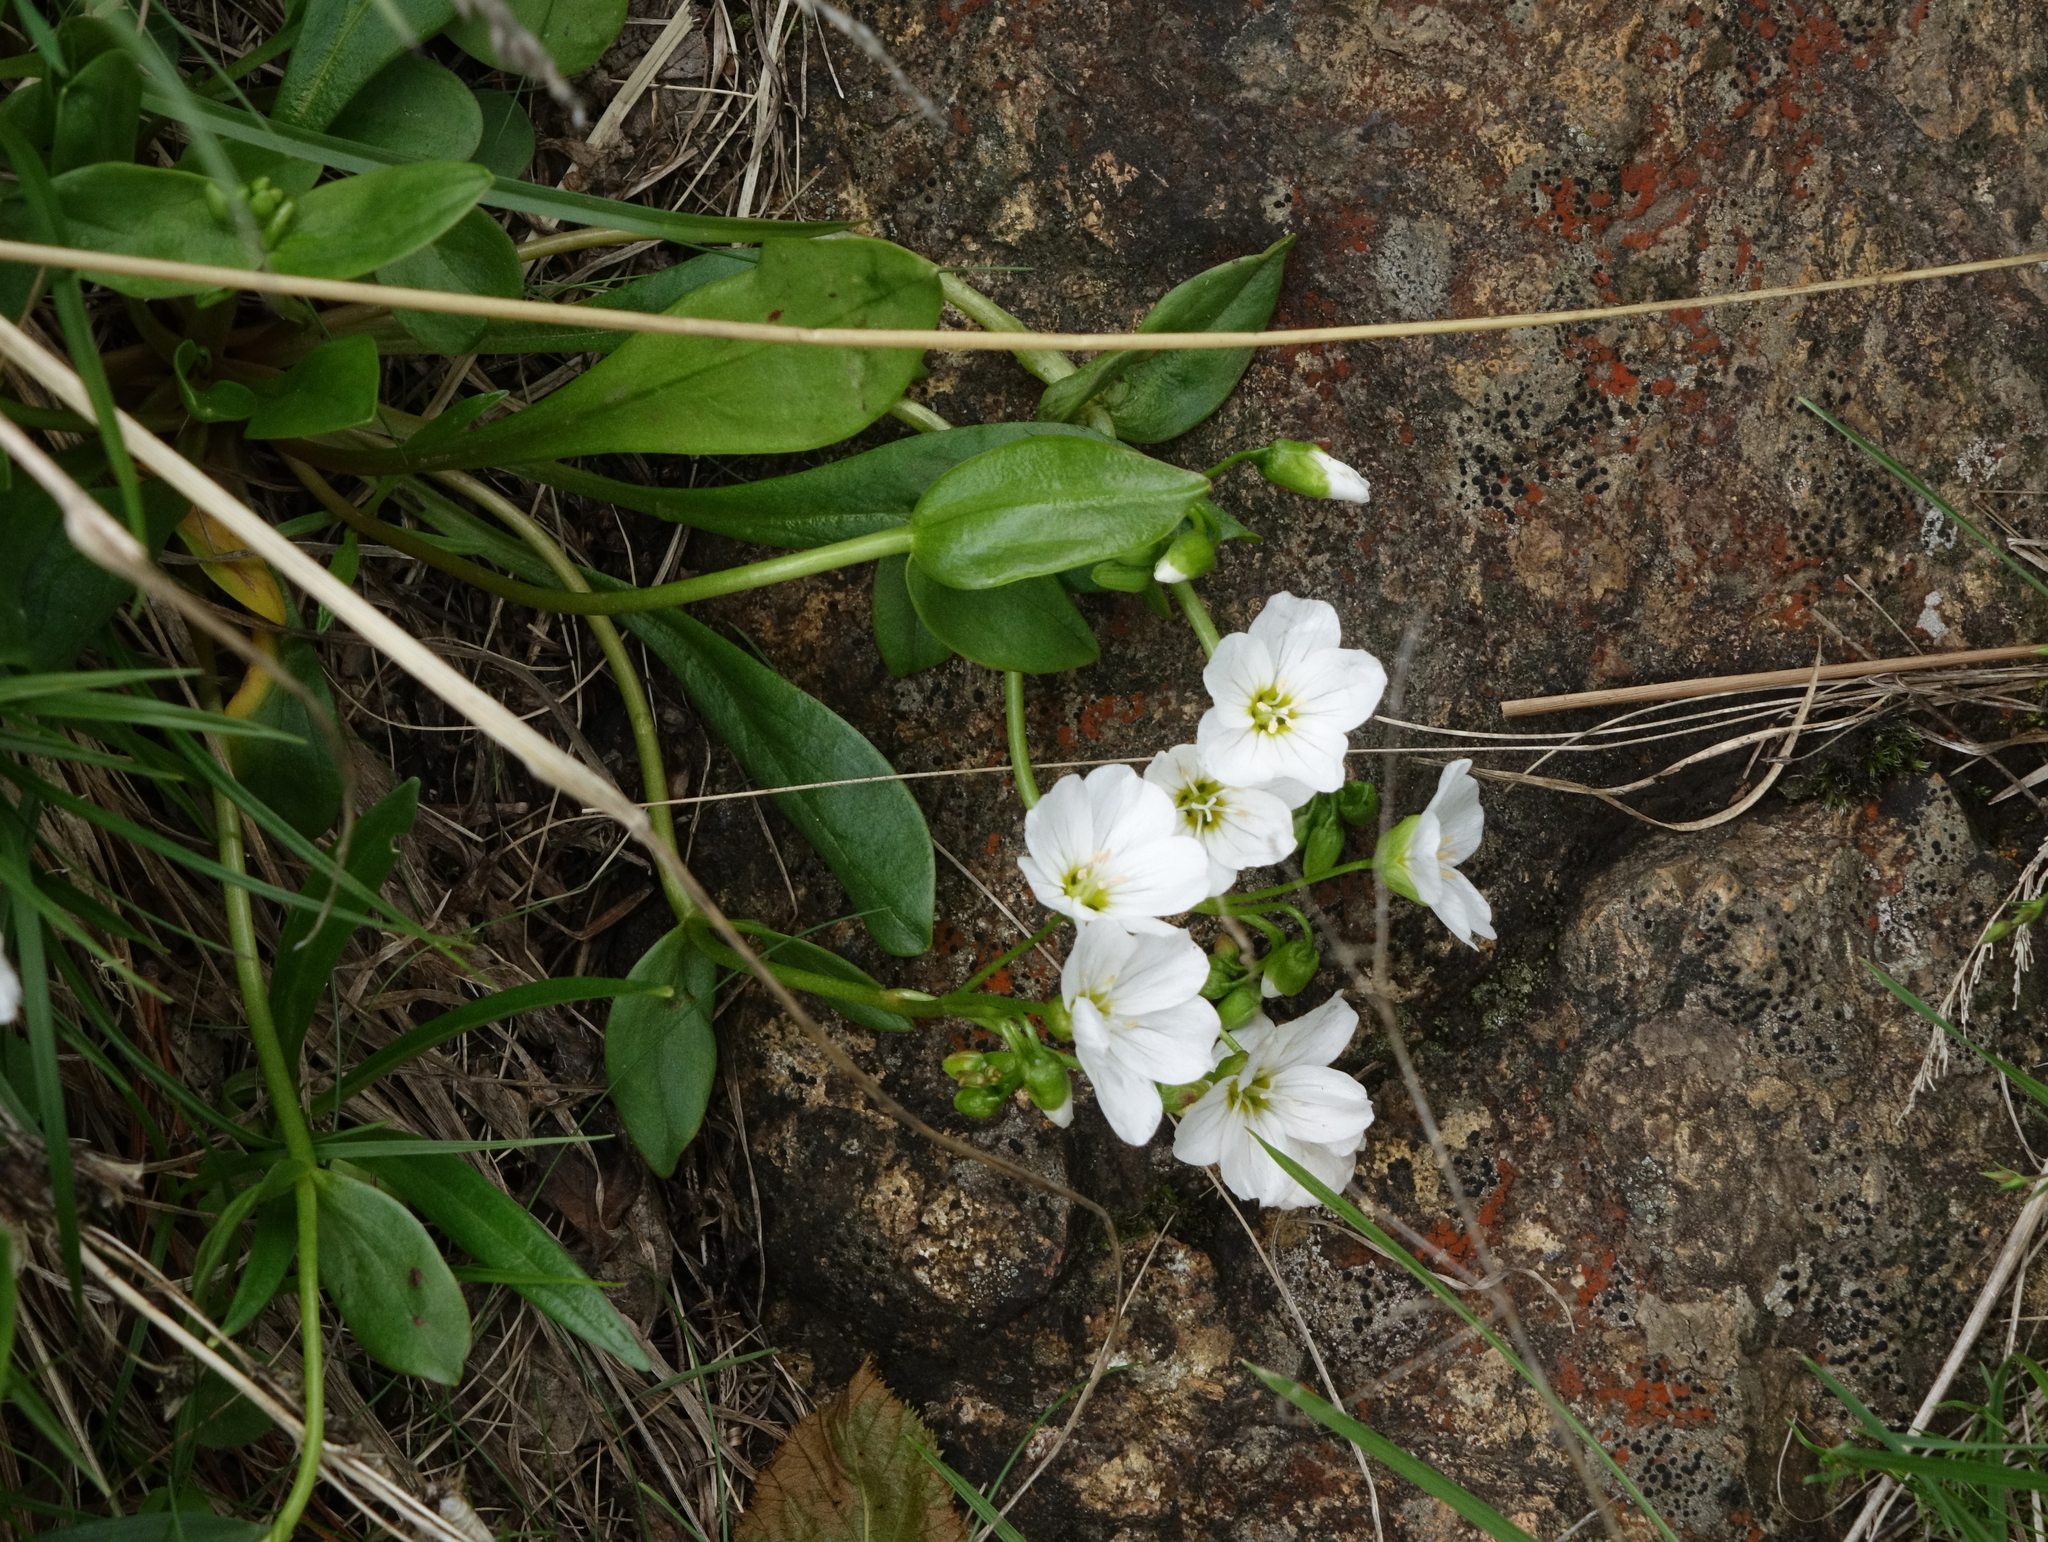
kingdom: Plantae
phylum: Tracheophyta
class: Magnoliopsida
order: Caryophyllales
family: Montiaceae
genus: Claytonia
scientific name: Claytonia joanneana
